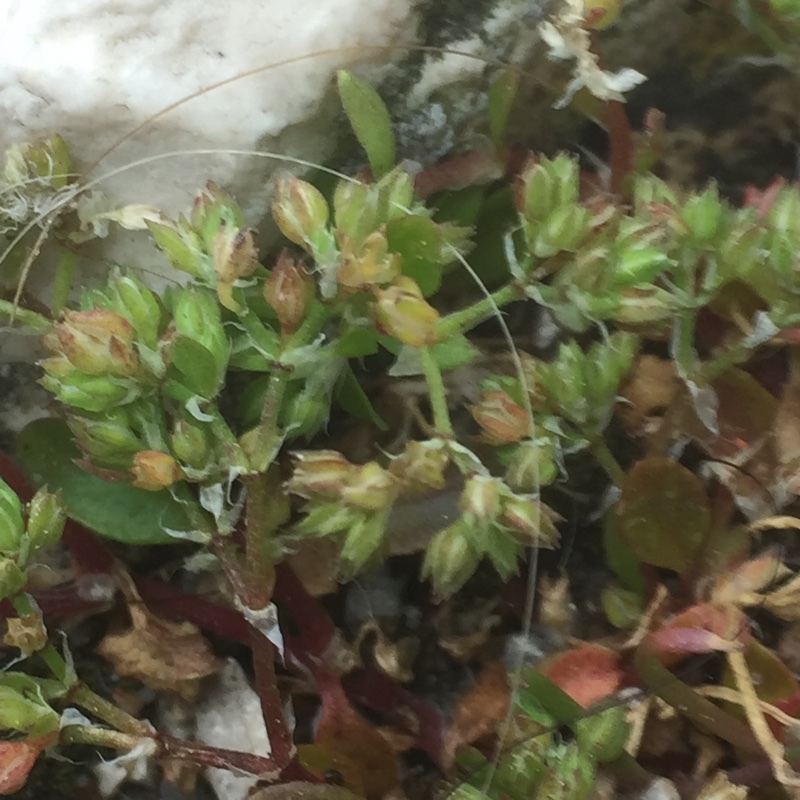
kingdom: Plantae
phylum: Tracheophyta
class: Magnoliopsida
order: Caryophyllales
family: Caryophyllaceae
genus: Polycarpon
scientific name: Polycarpon tetraphyllum
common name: Four-leaved all-seed
